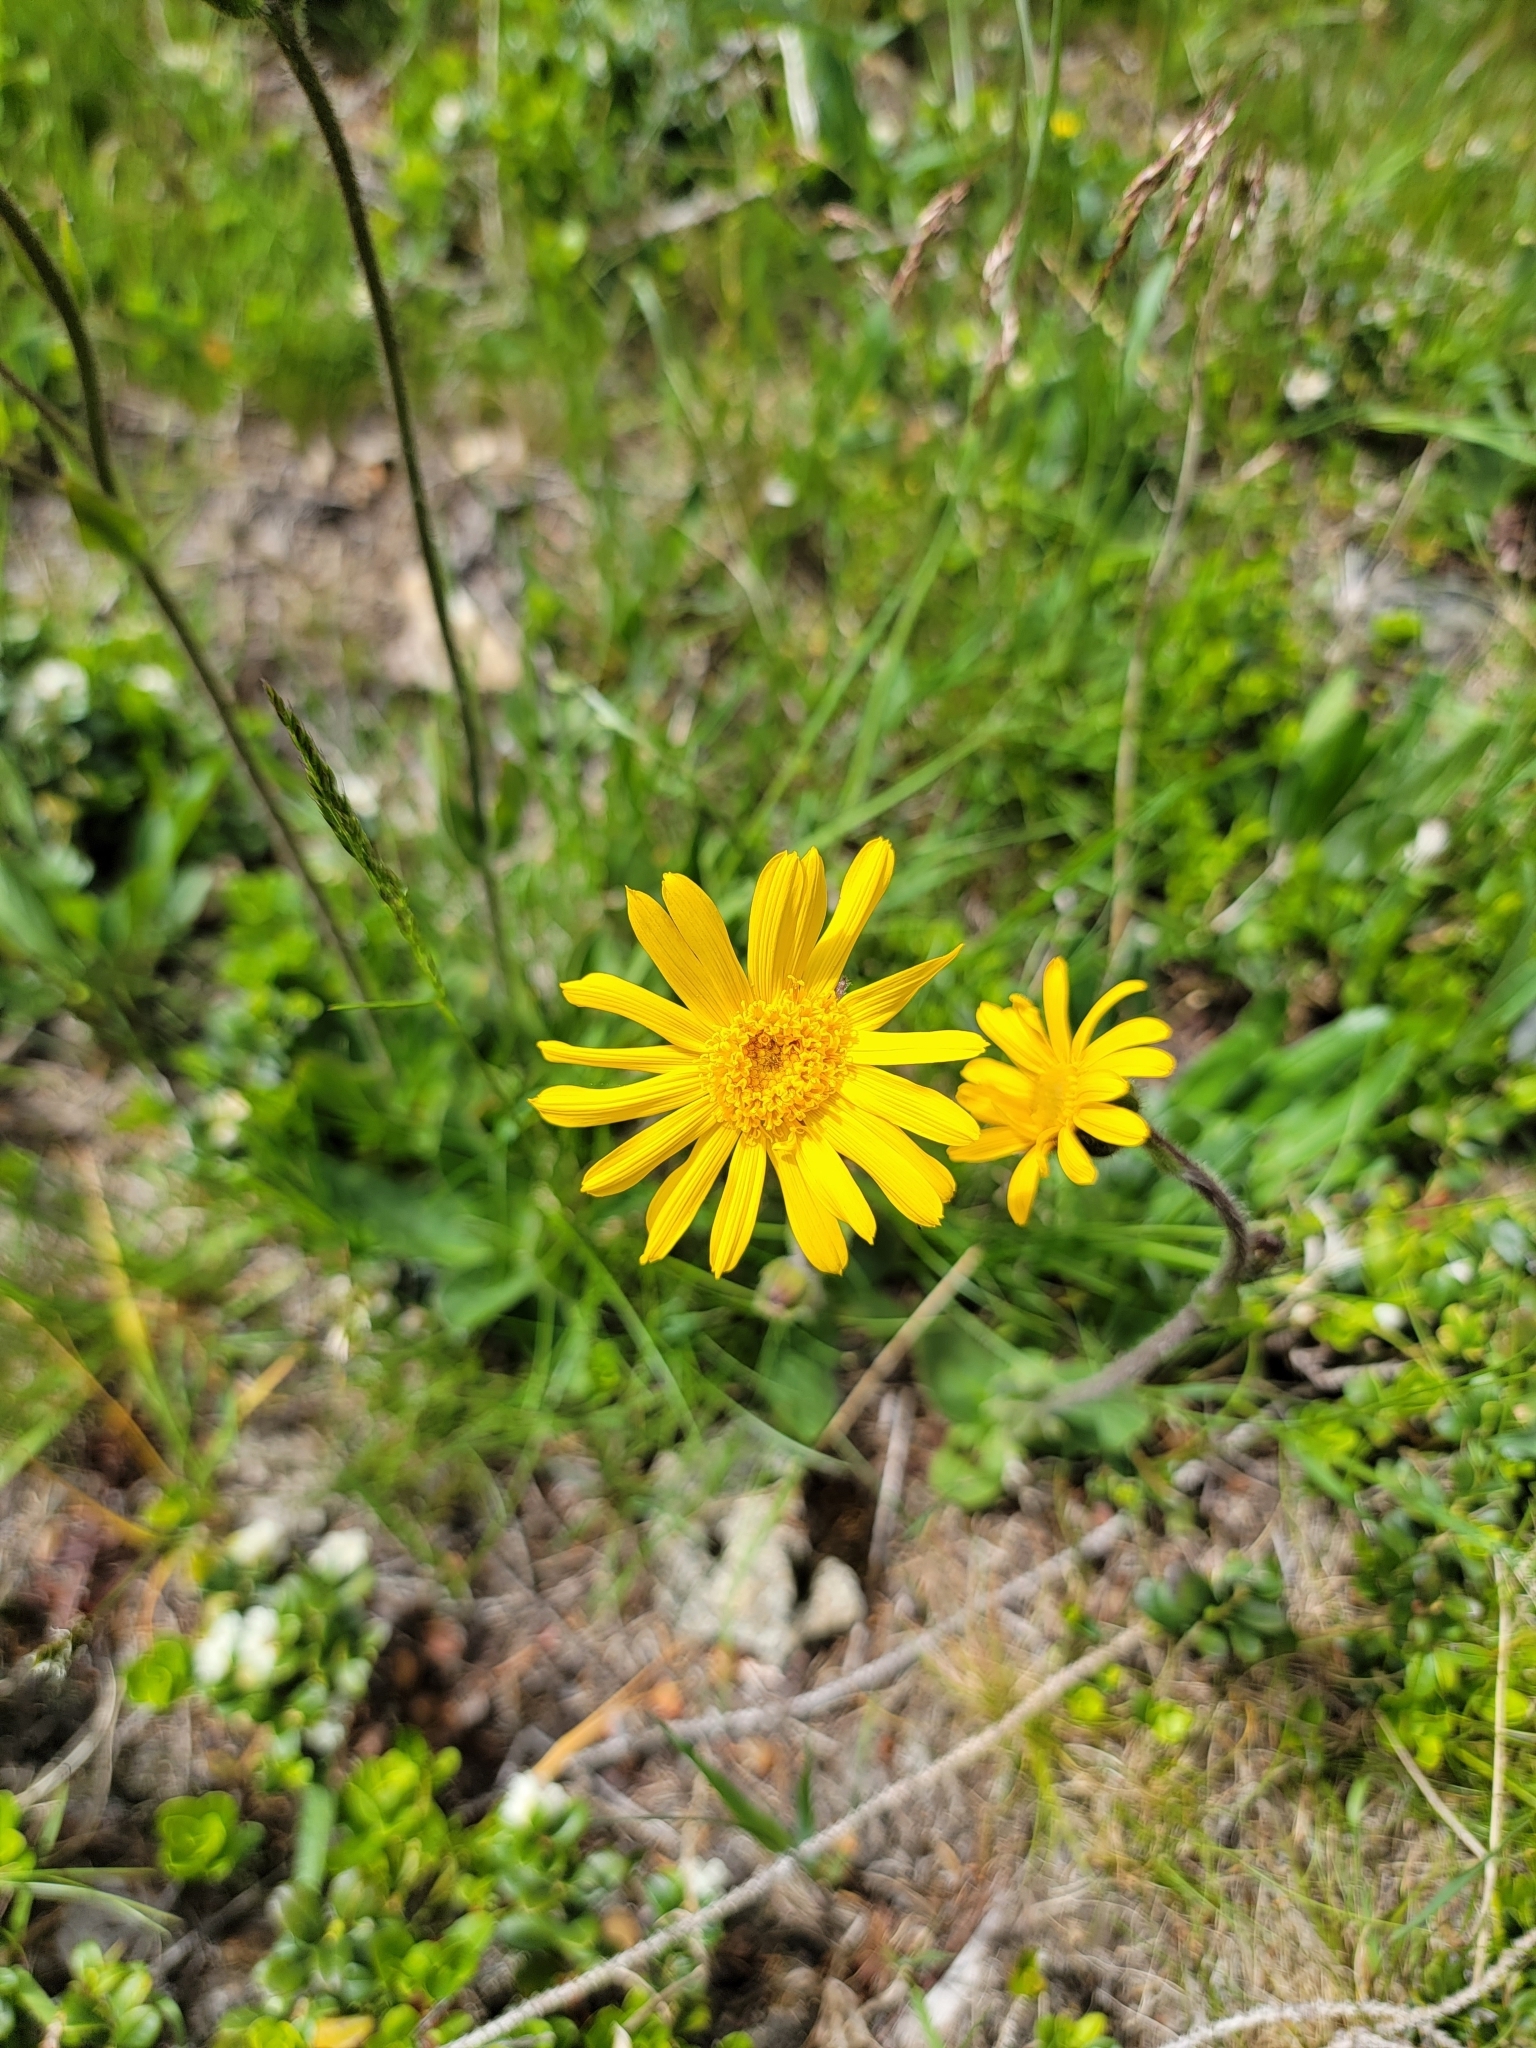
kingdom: Plantae
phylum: Tracheophyta
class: Magnoliopsida
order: Asterales
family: Asteraceae
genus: Arnica
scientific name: Arnica montana
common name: Leopard's bane
